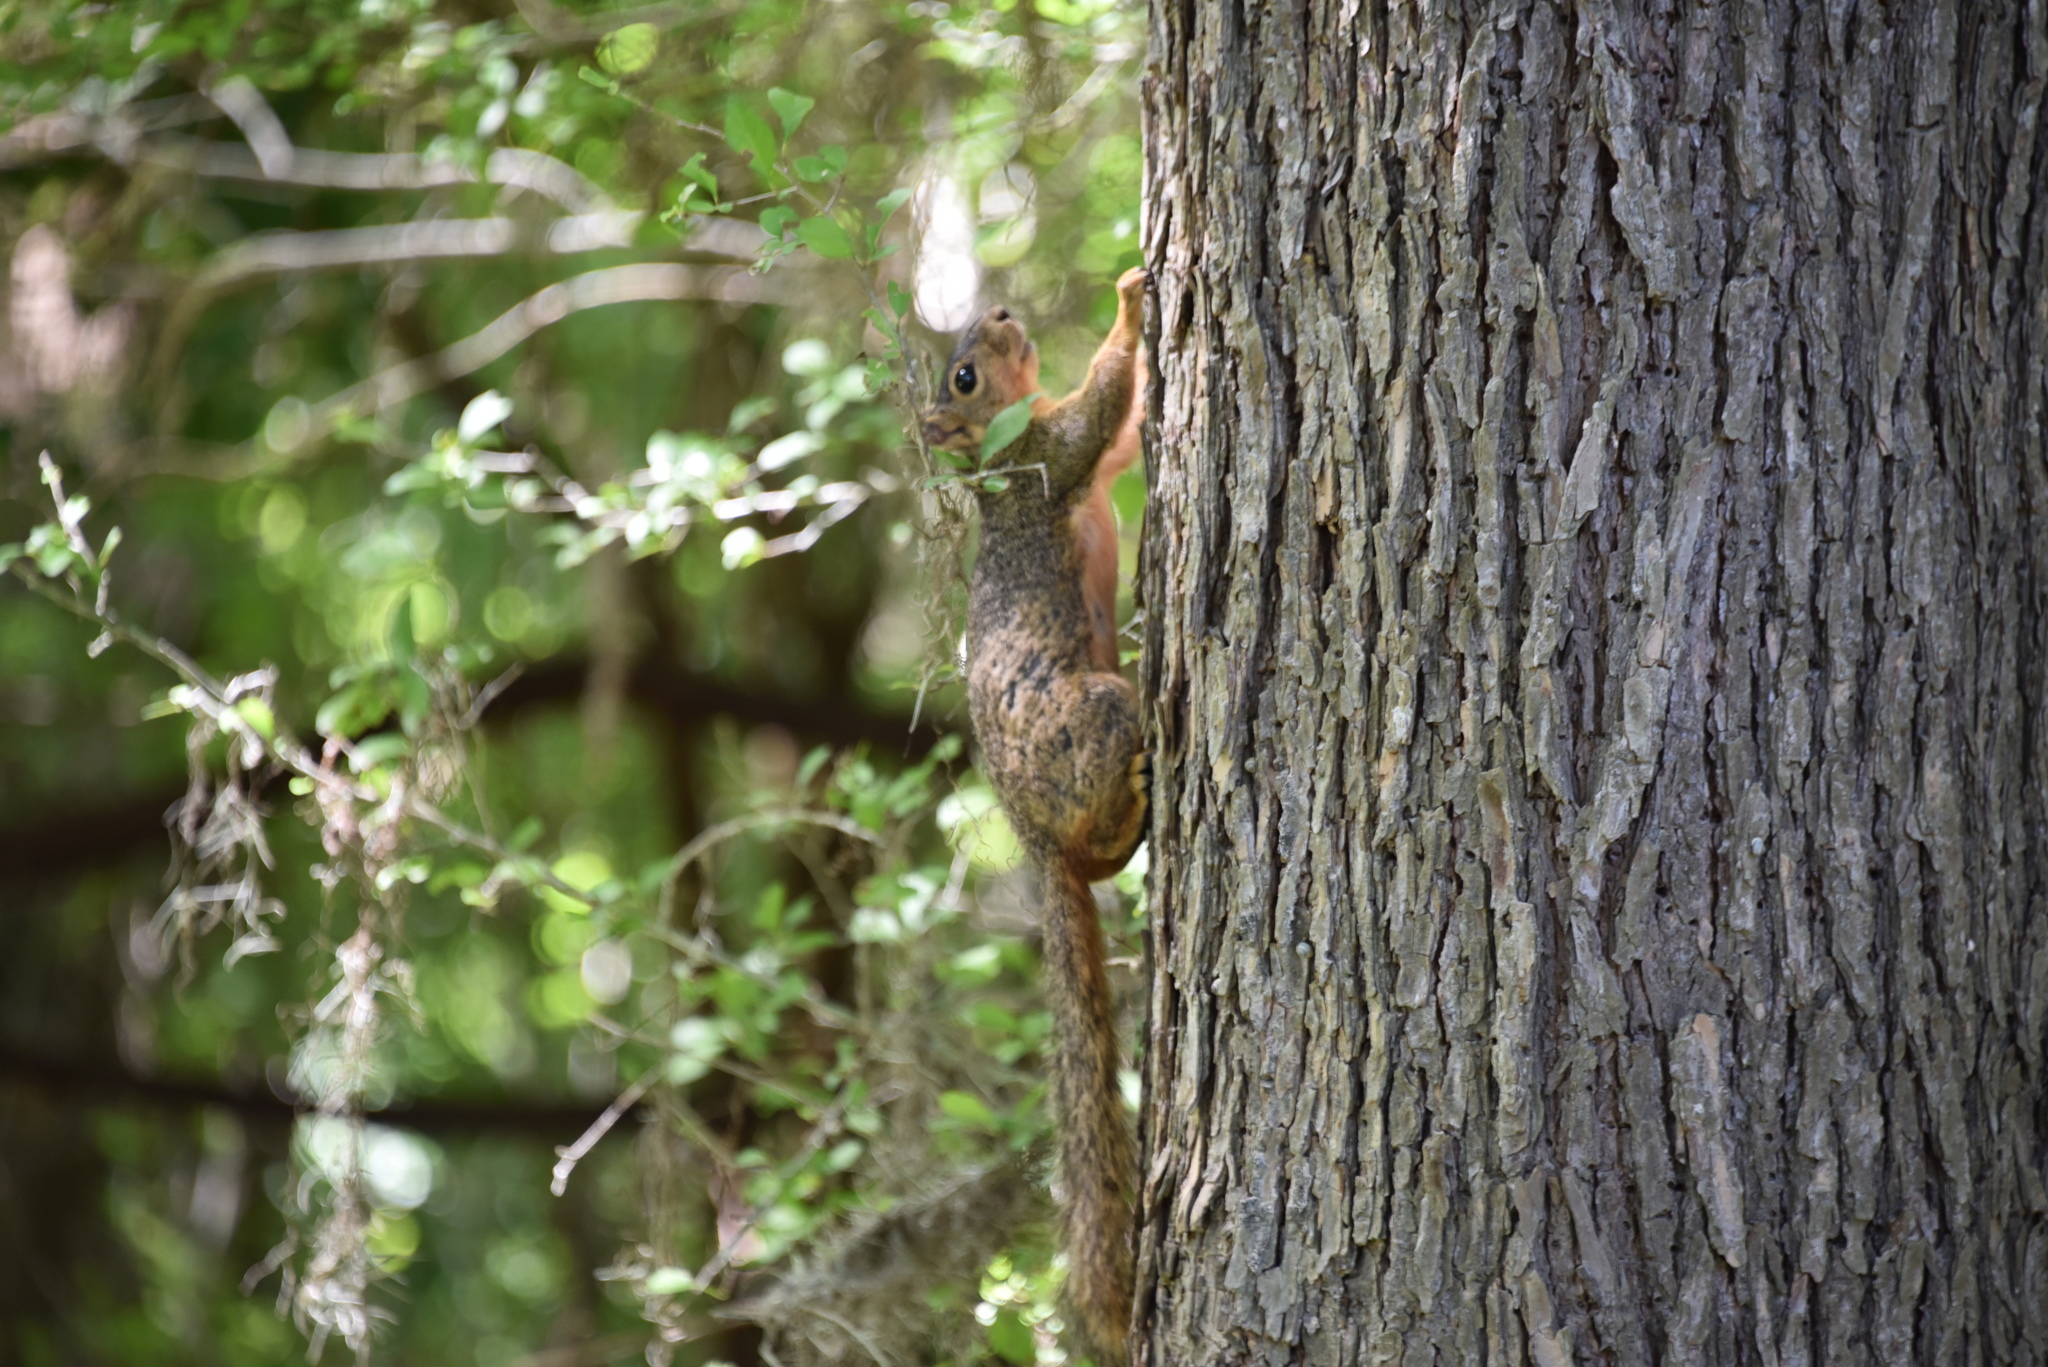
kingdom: Animalia
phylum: Chordata
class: Mammalia
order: Rodentia
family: Sciuridae
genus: Sciurus
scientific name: Sciurus niger
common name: Fox squirrel
